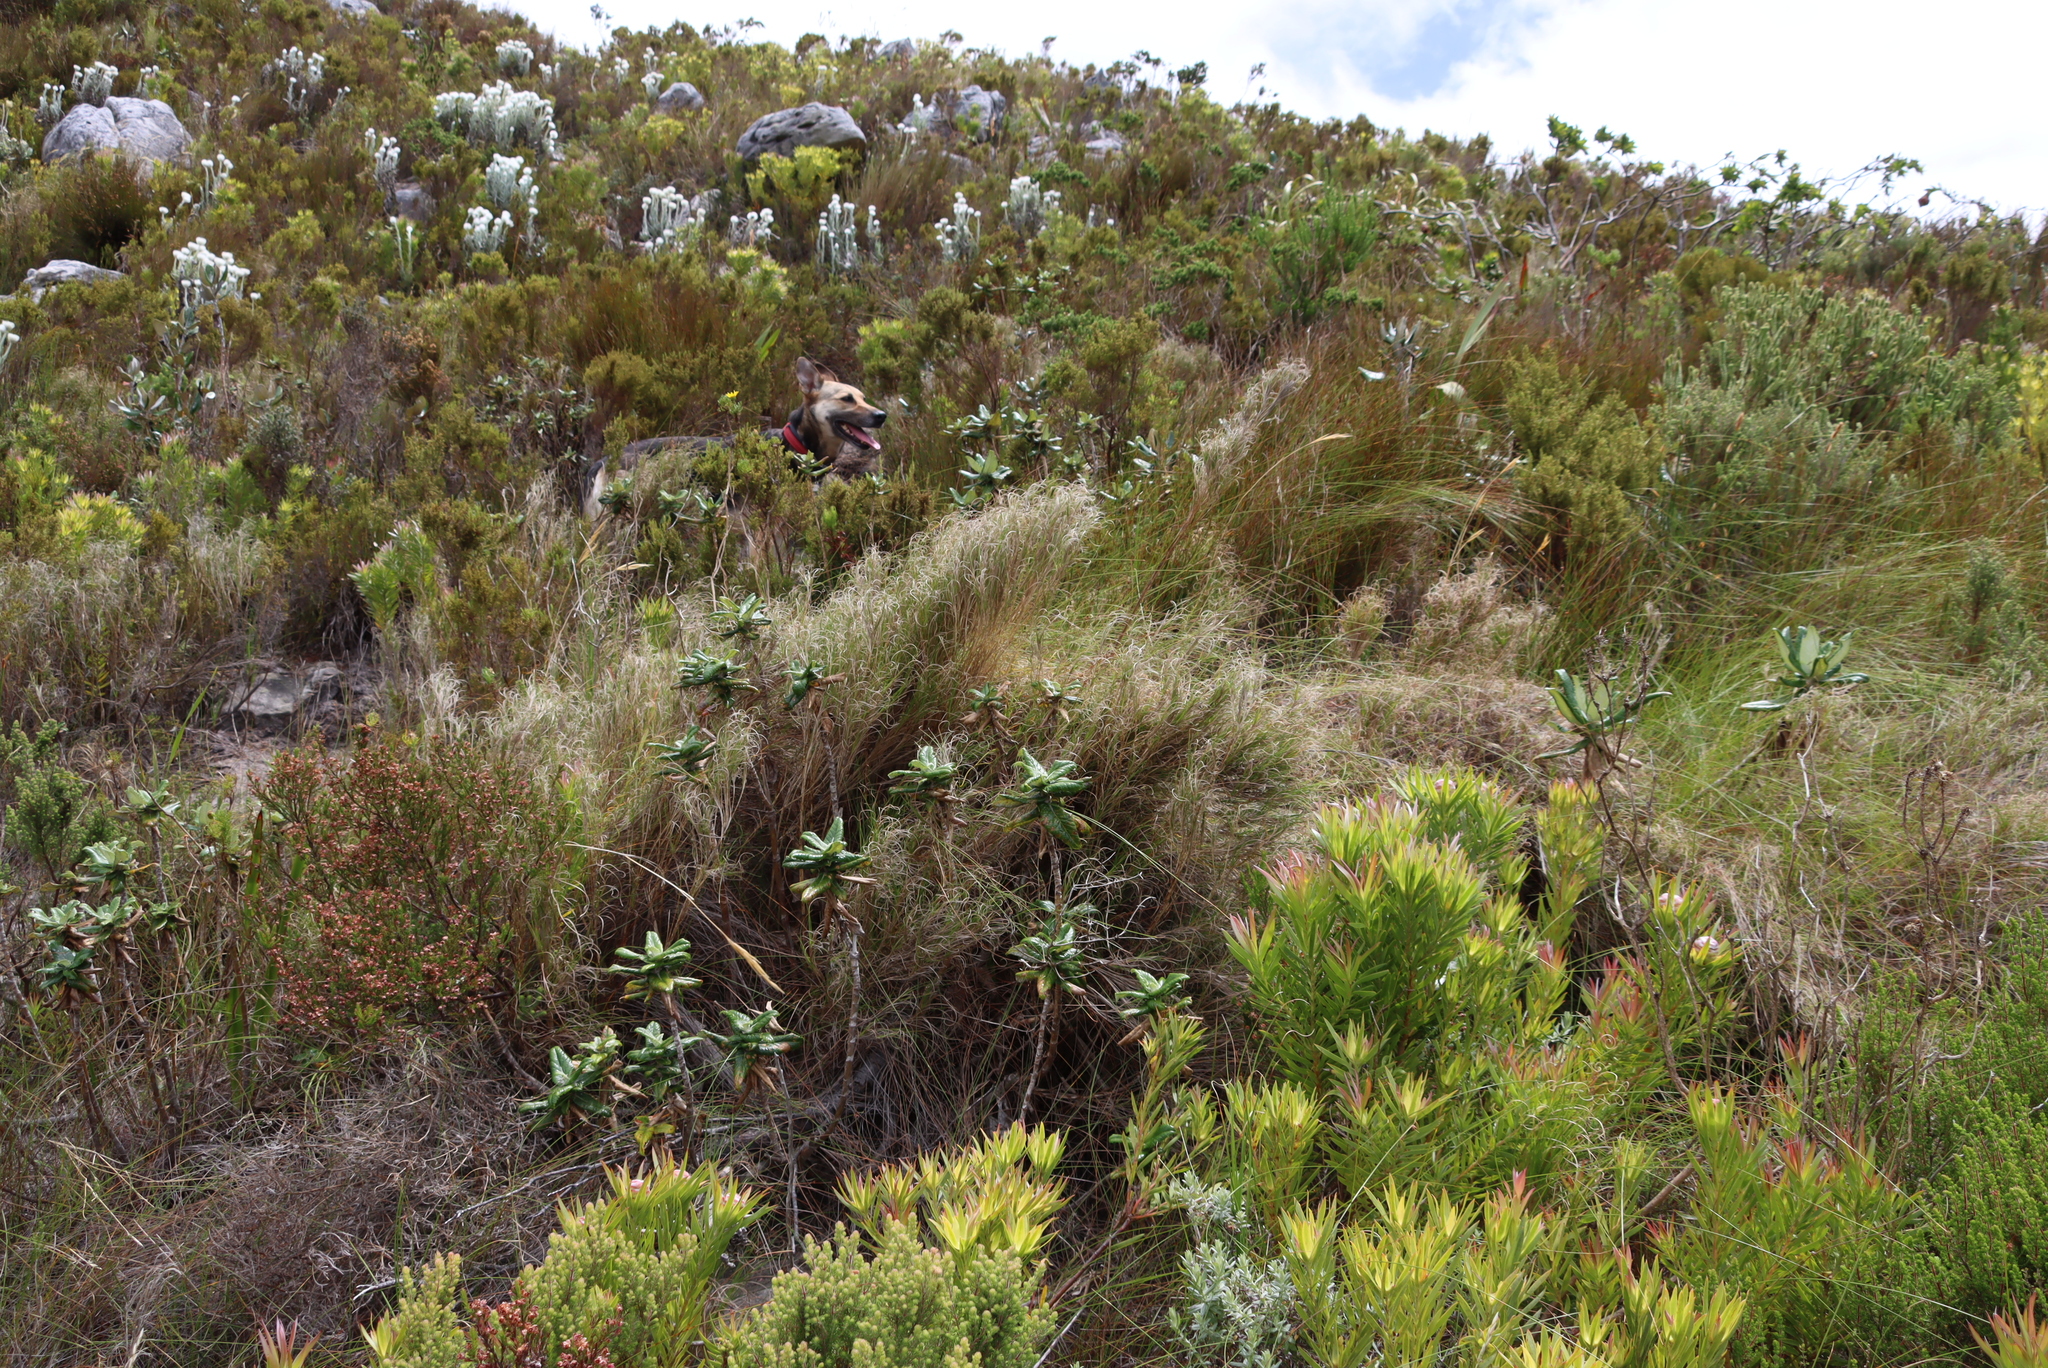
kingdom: Plantae
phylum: Tracheophyta
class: Magnoliopsida
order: Apiales
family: Apiaceae
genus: Hermas
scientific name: Hermas villosa
